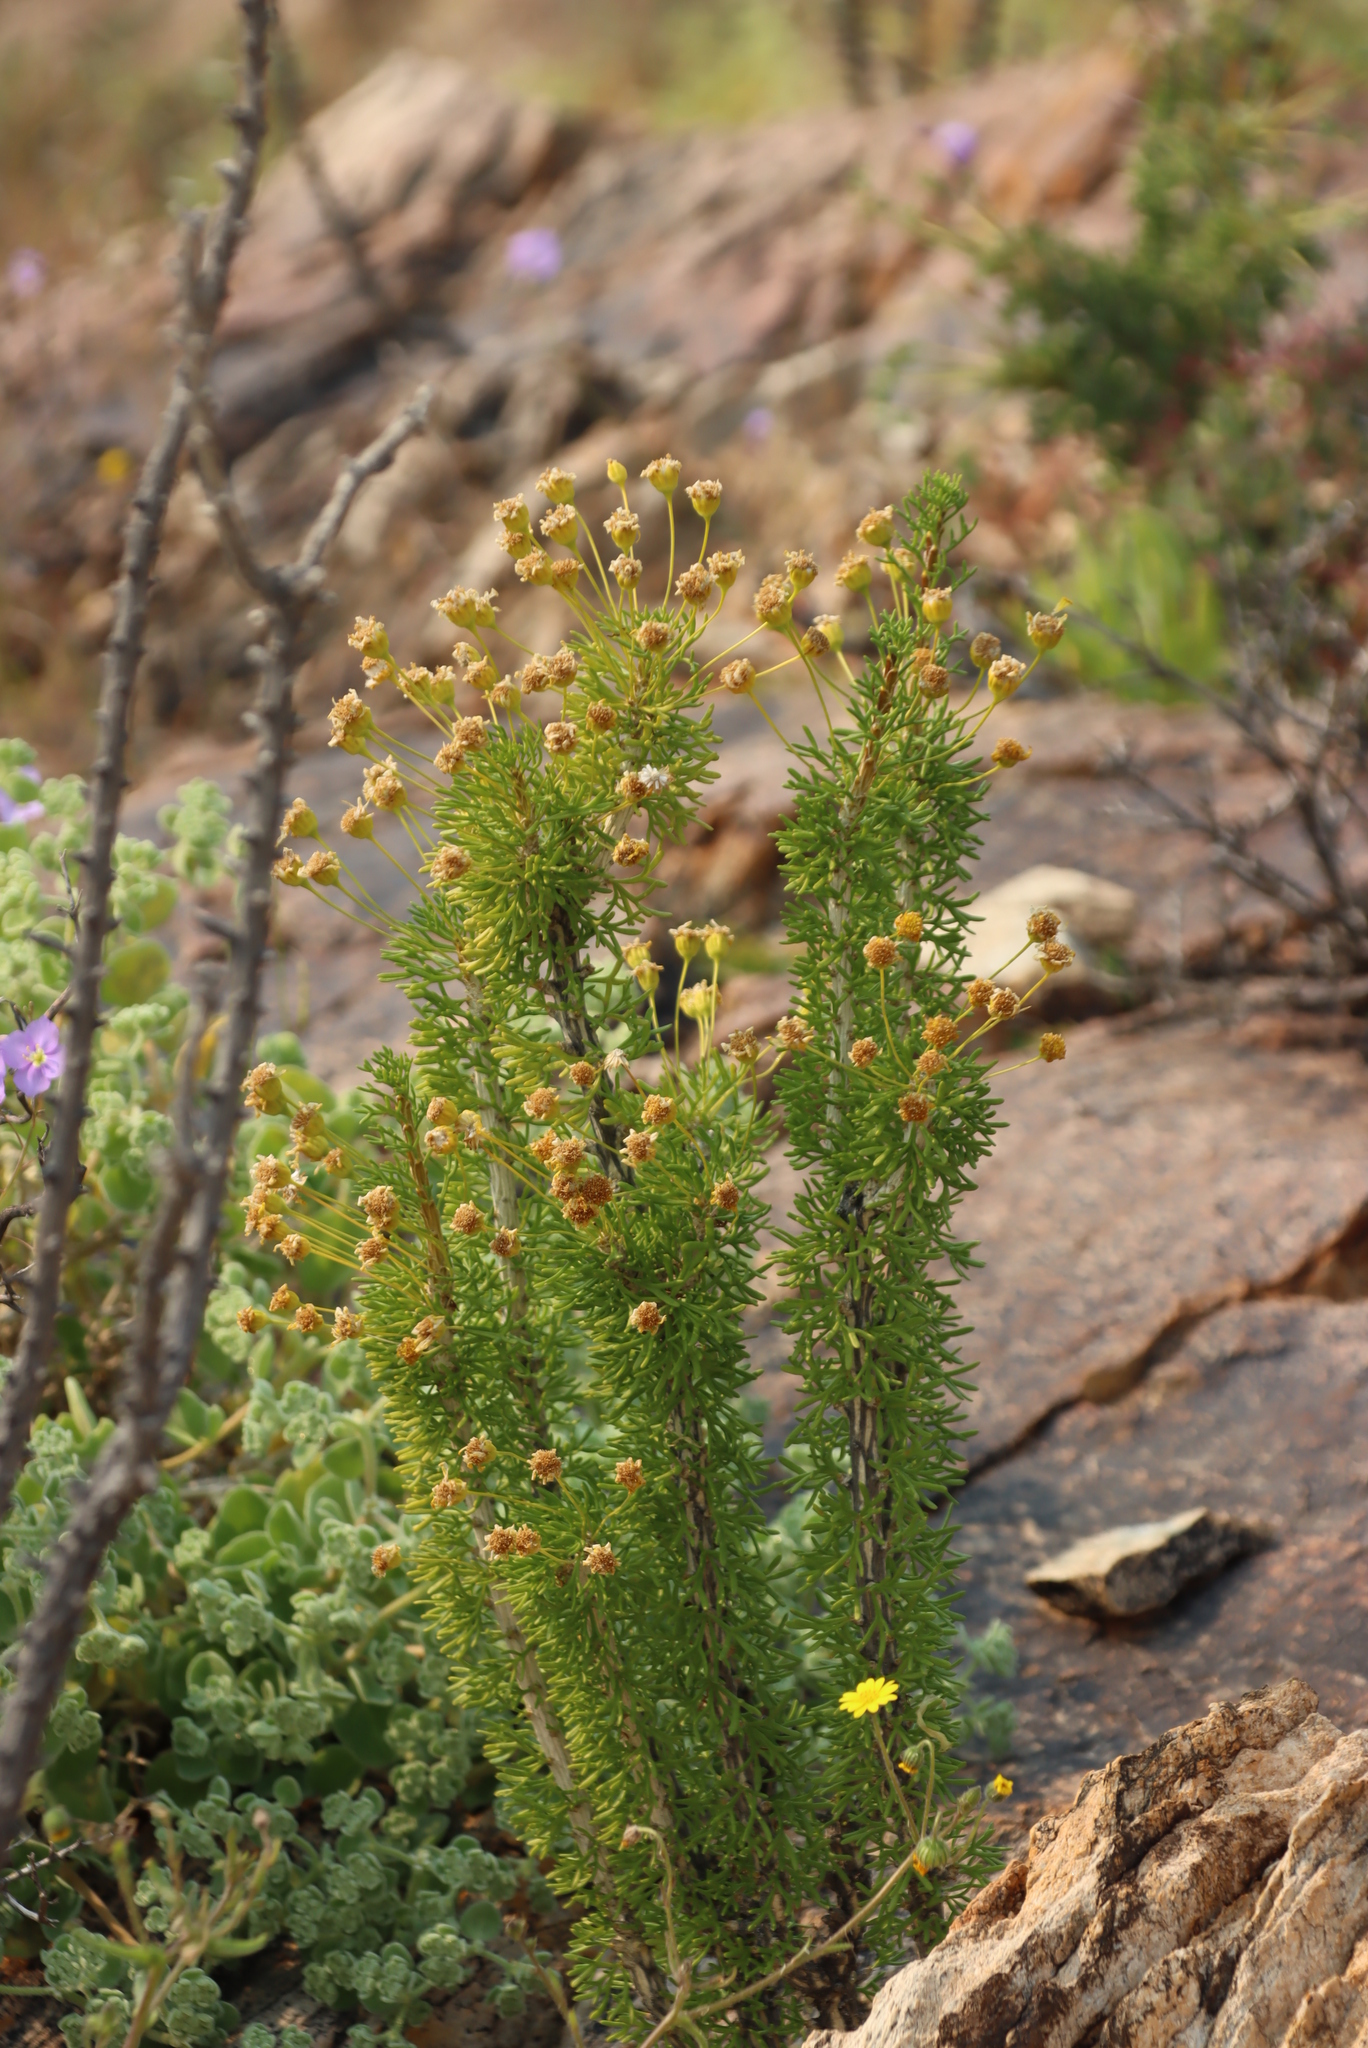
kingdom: Plantae
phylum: Tracheophyta
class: Magnoliopsida
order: Asterales
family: Asteraceae
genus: Euryops
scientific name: Euryops namibensis
